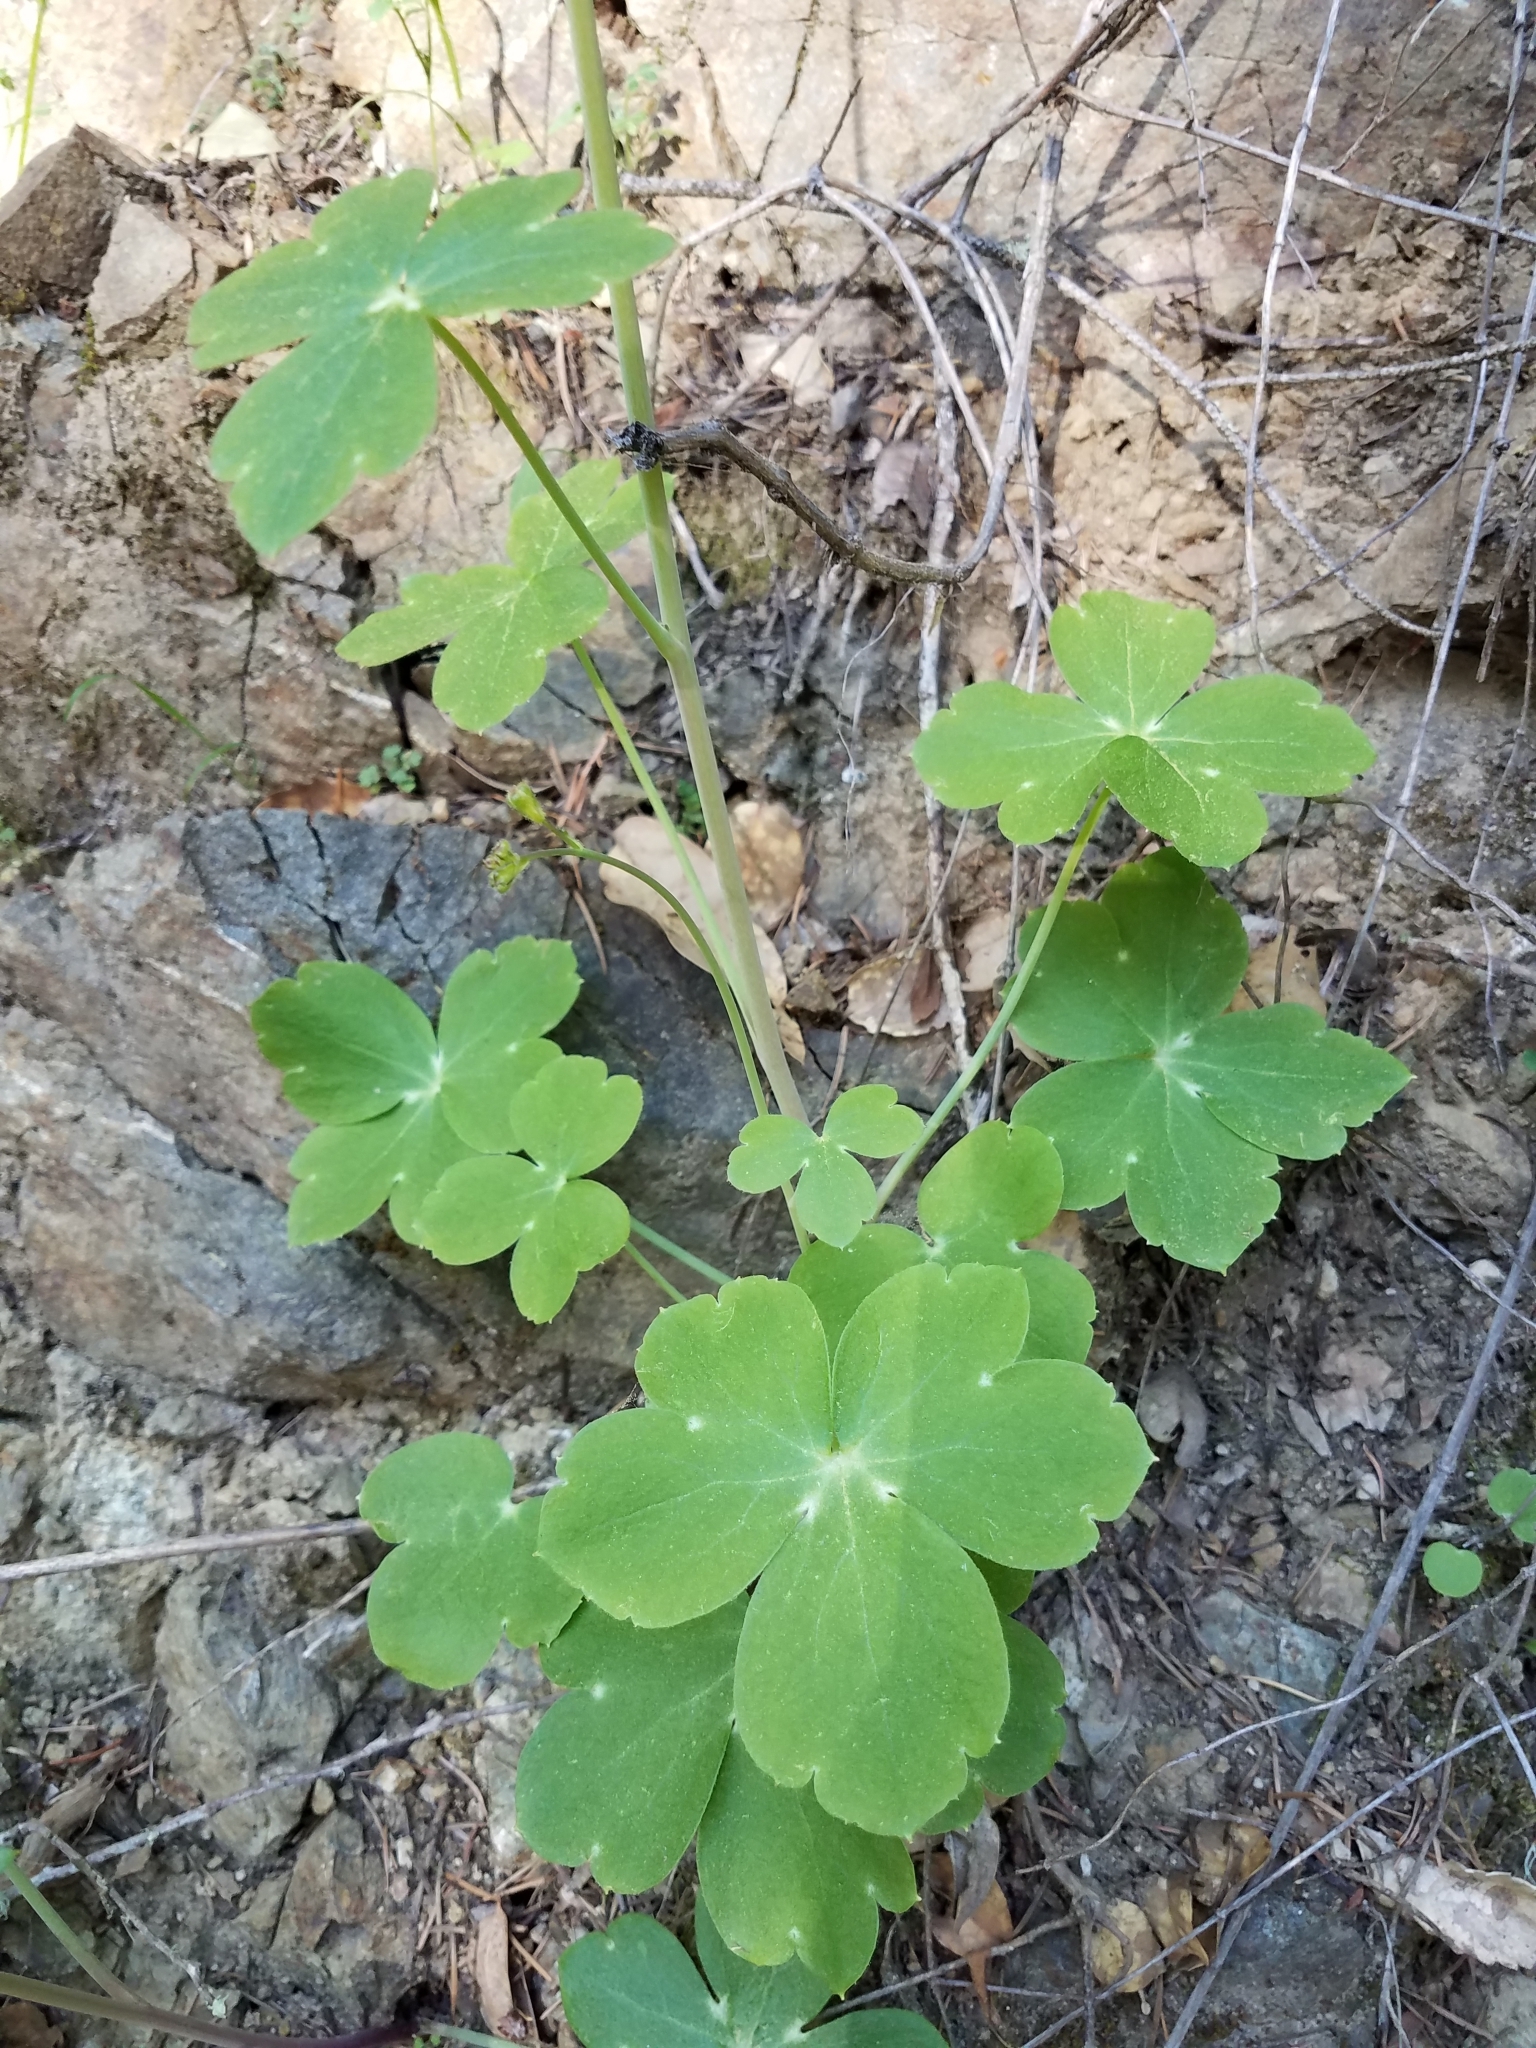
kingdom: Plantae
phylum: Tracheophyta
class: Magnoliopsida
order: Ranunculales
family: Ranunculaceae
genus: Delphinium
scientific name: Delphinium nudicaule
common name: Red larkspur
